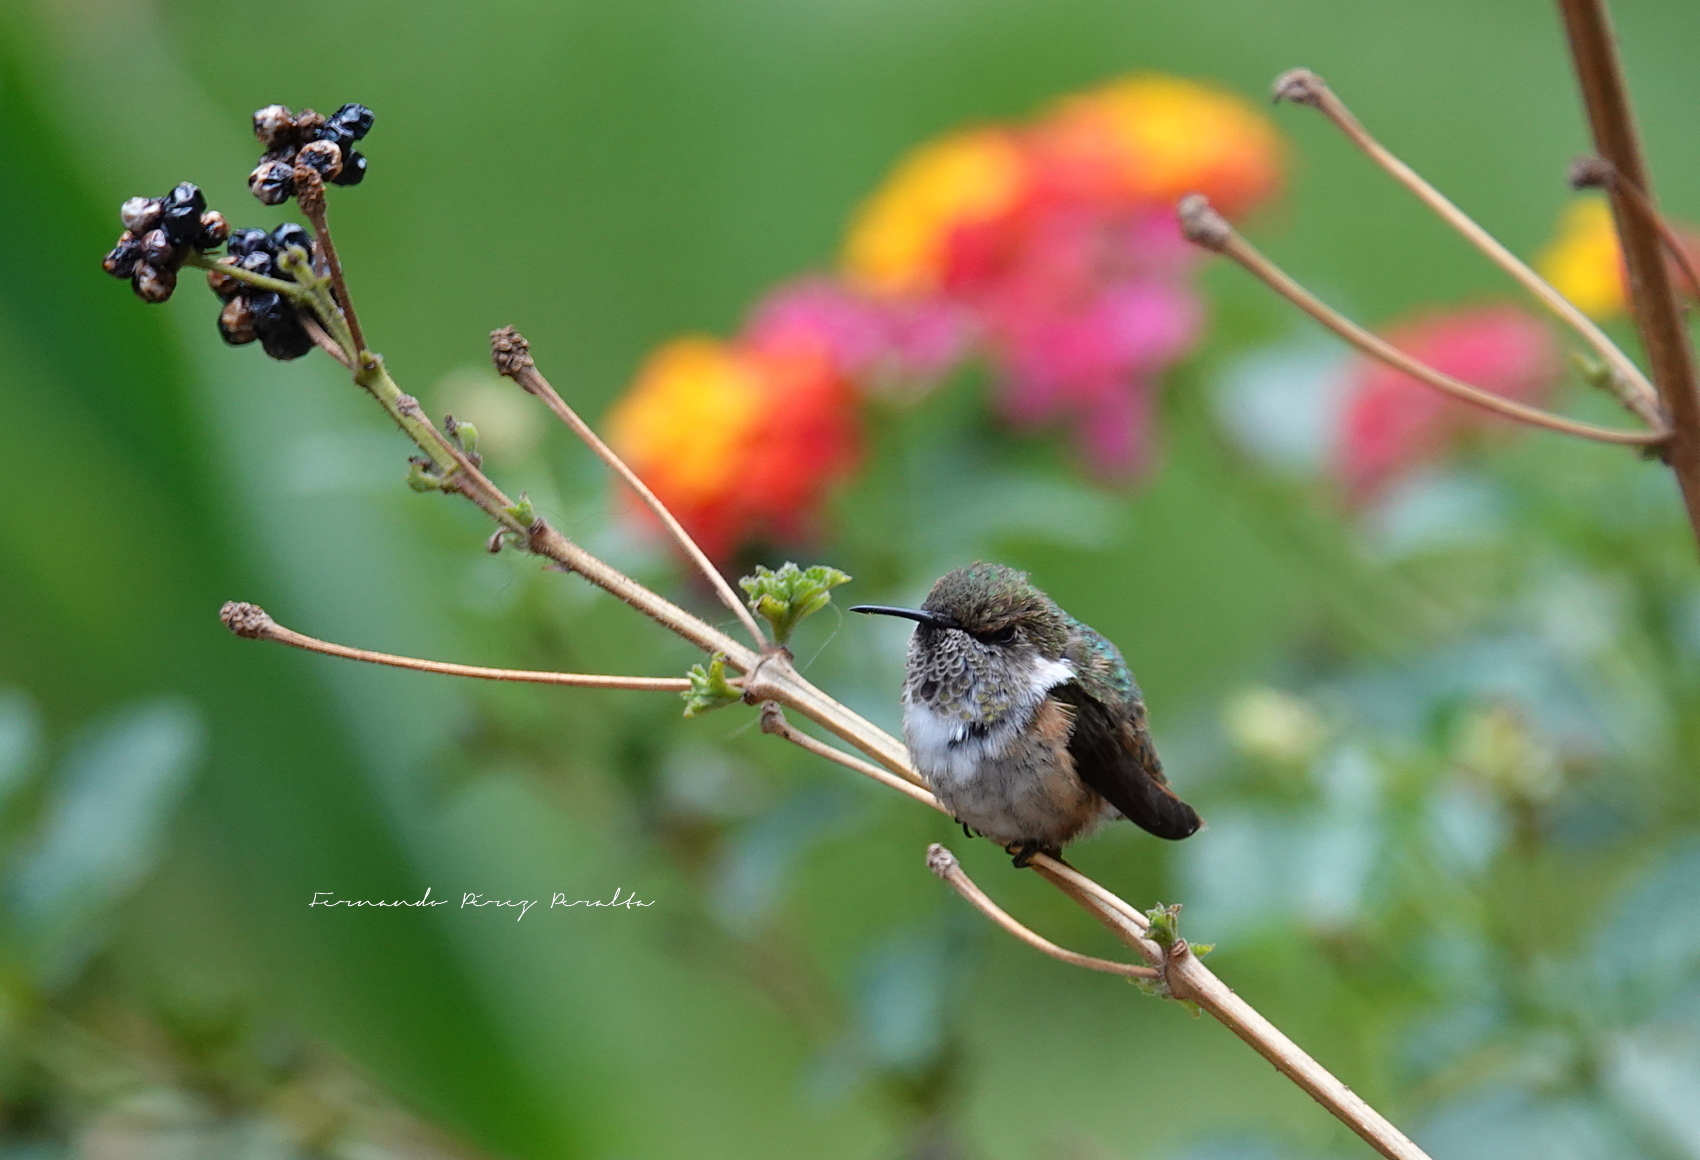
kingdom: Animalia
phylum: Chordata
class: Aves
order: Apodiformes
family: Trochilidae
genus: Selasphorus
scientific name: Selasphorus heloisa
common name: Bumblebee hummingbird
